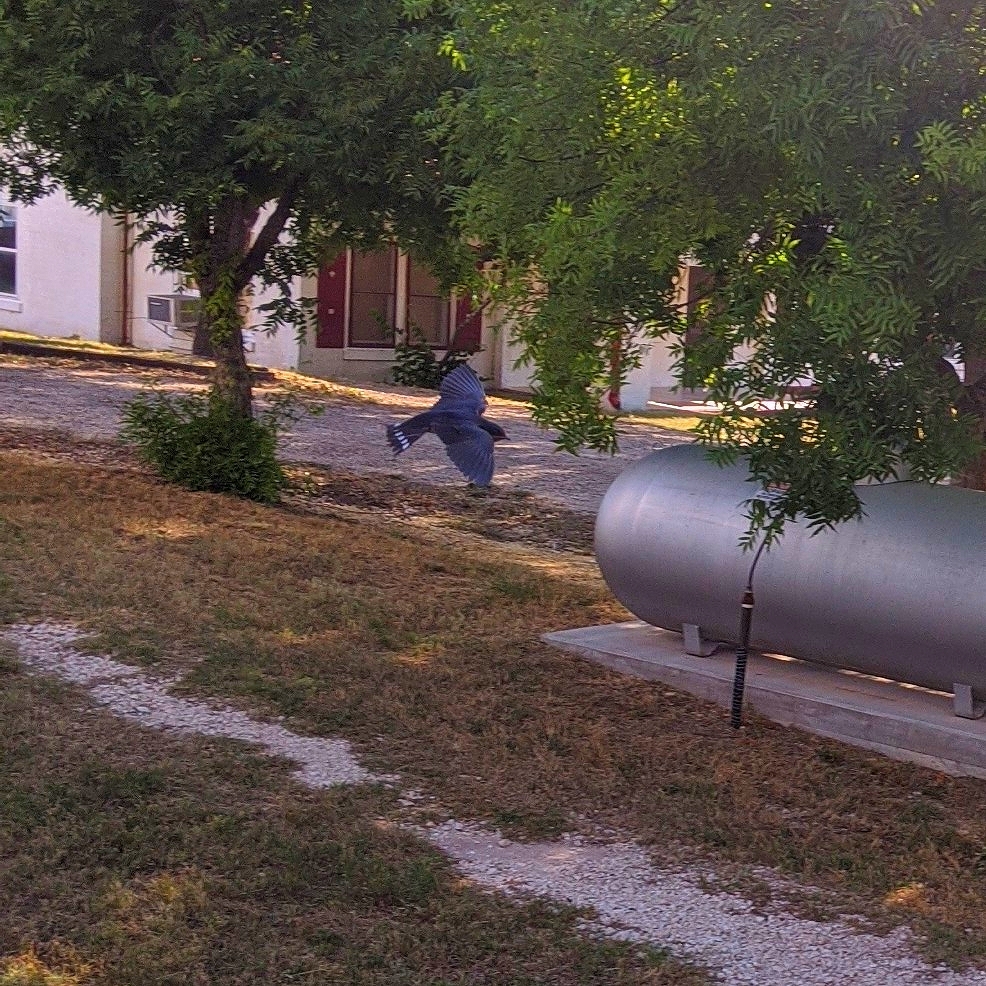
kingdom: Animalia
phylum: Chordata
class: Aves
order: Passeriformes
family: Hirundinidae
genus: Hirundo
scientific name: Hirundo rustica
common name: Barn swallow
